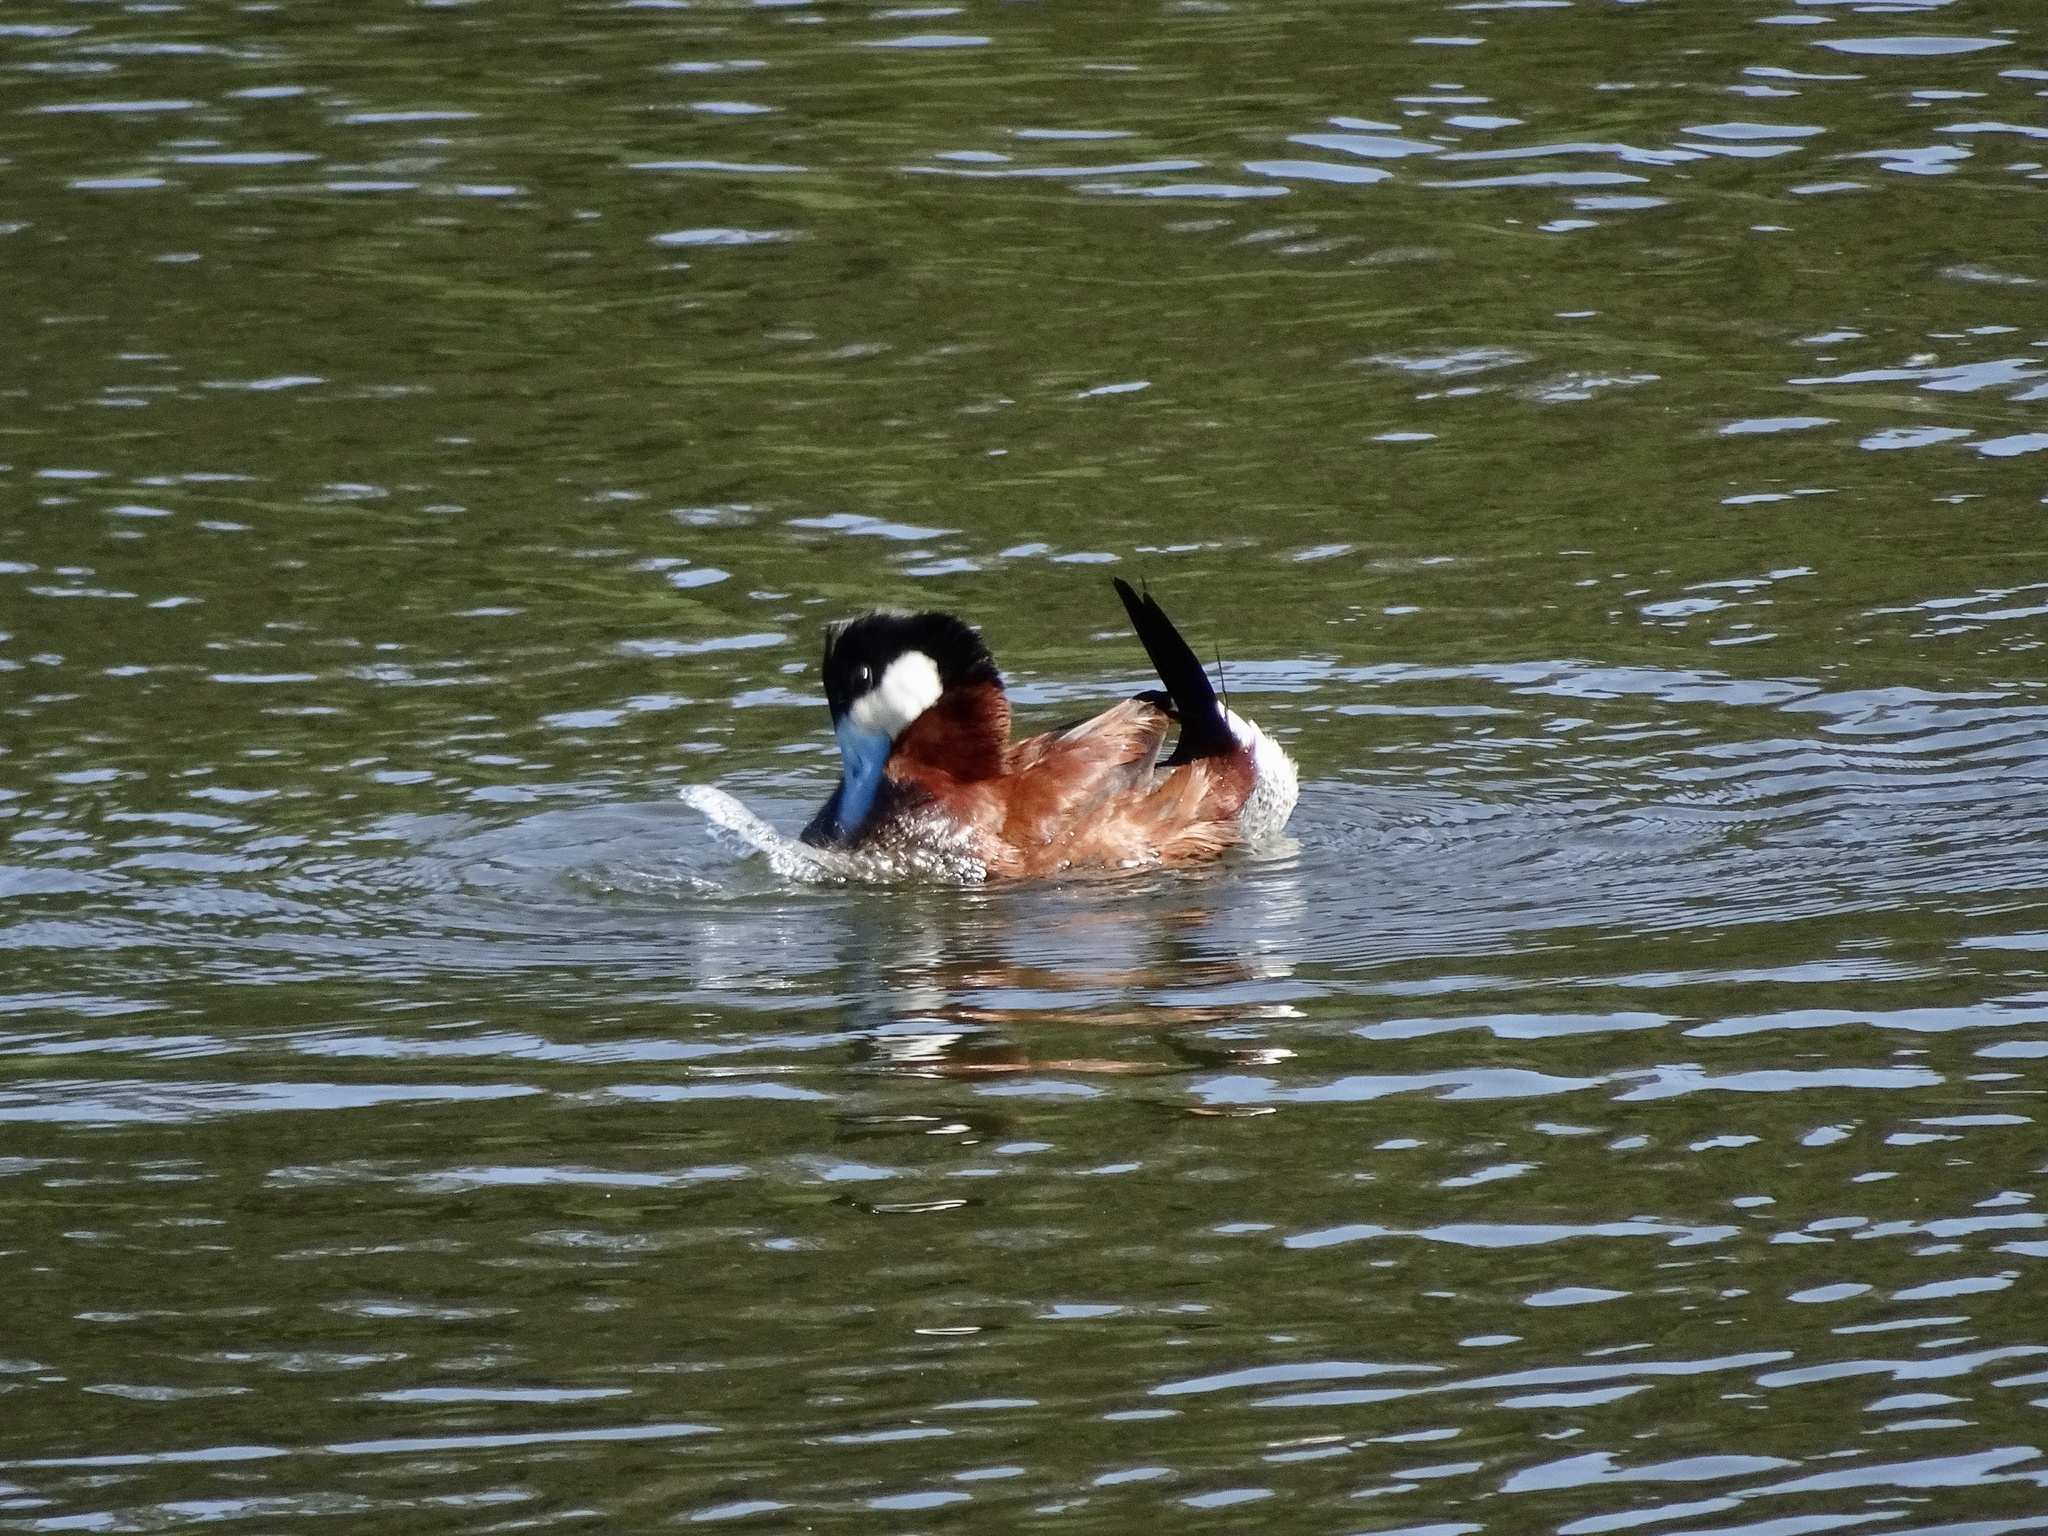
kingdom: Animalia
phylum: Chordata
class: Aves
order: Anseriformes
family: Anatidae
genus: Oxyura
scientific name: Oxyura jamaicensis
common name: Ruddy duck
